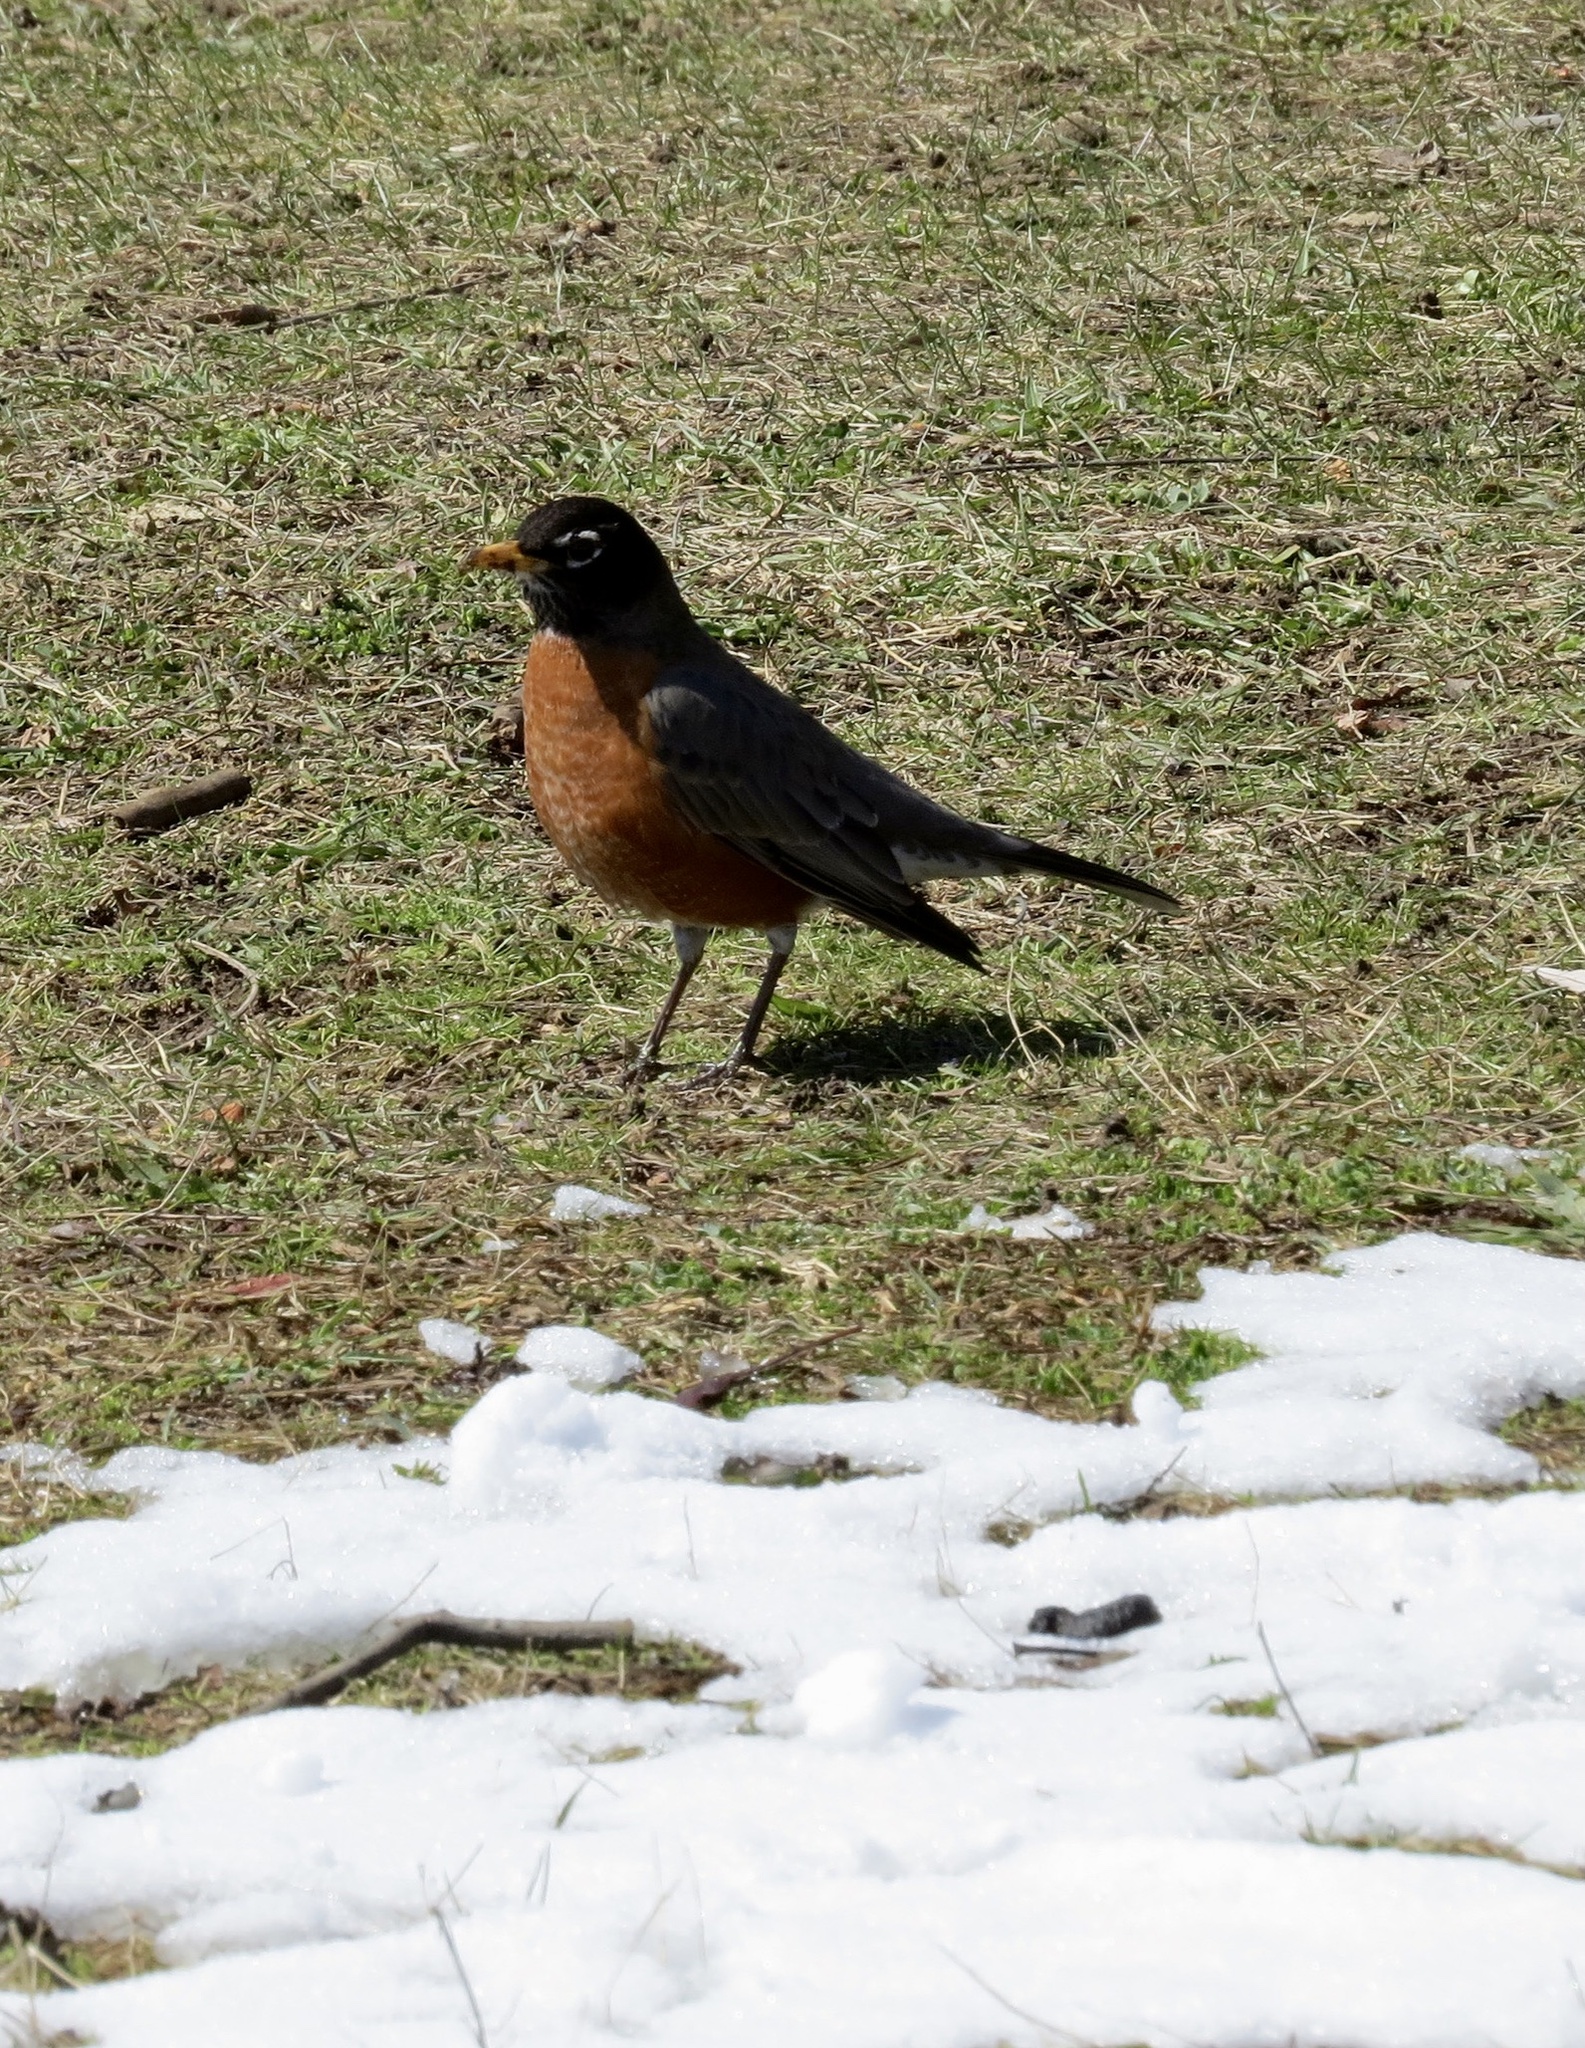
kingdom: Animalia
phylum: Chordata
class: Aves
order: Passeriformes
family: Turdidae
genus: Turdus
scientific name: Turdus migratorius
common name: American robin
